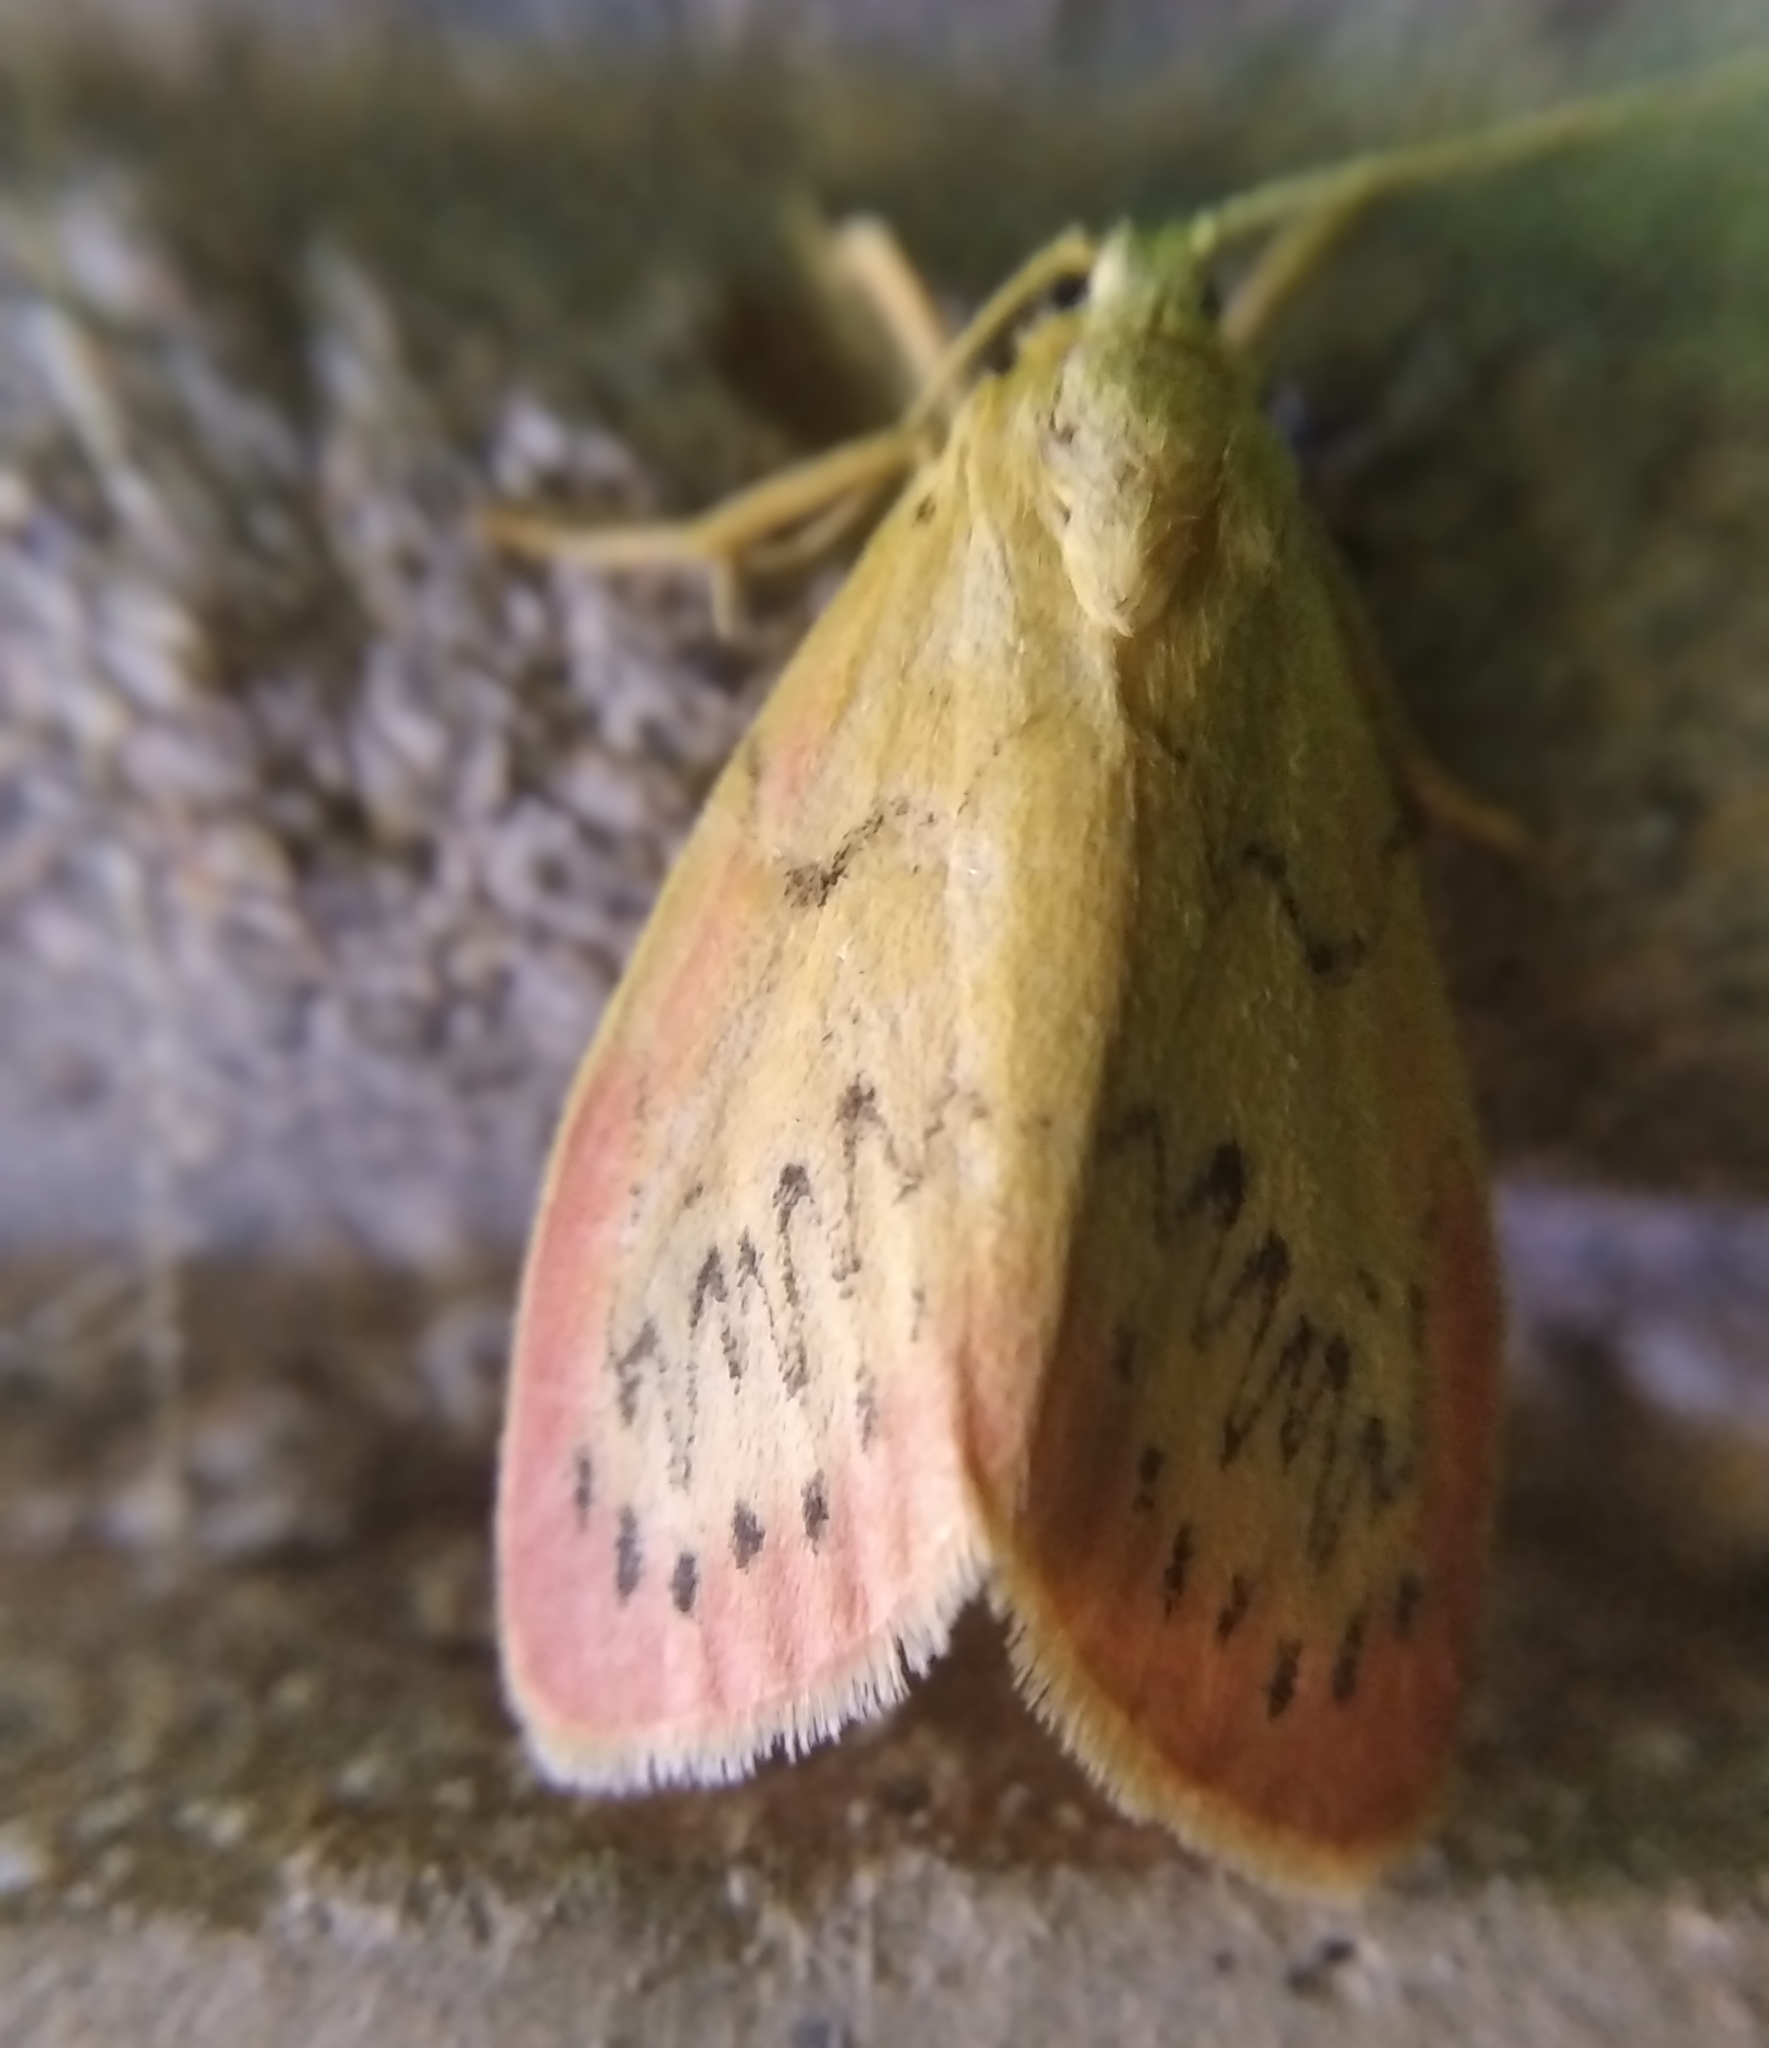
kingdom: Animalia
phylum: Arthropoda
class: Insecta
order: Lepidoptera
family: Erebidae
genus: Miltochrista
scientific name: Miltochrista miniata
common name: Rosy footman
